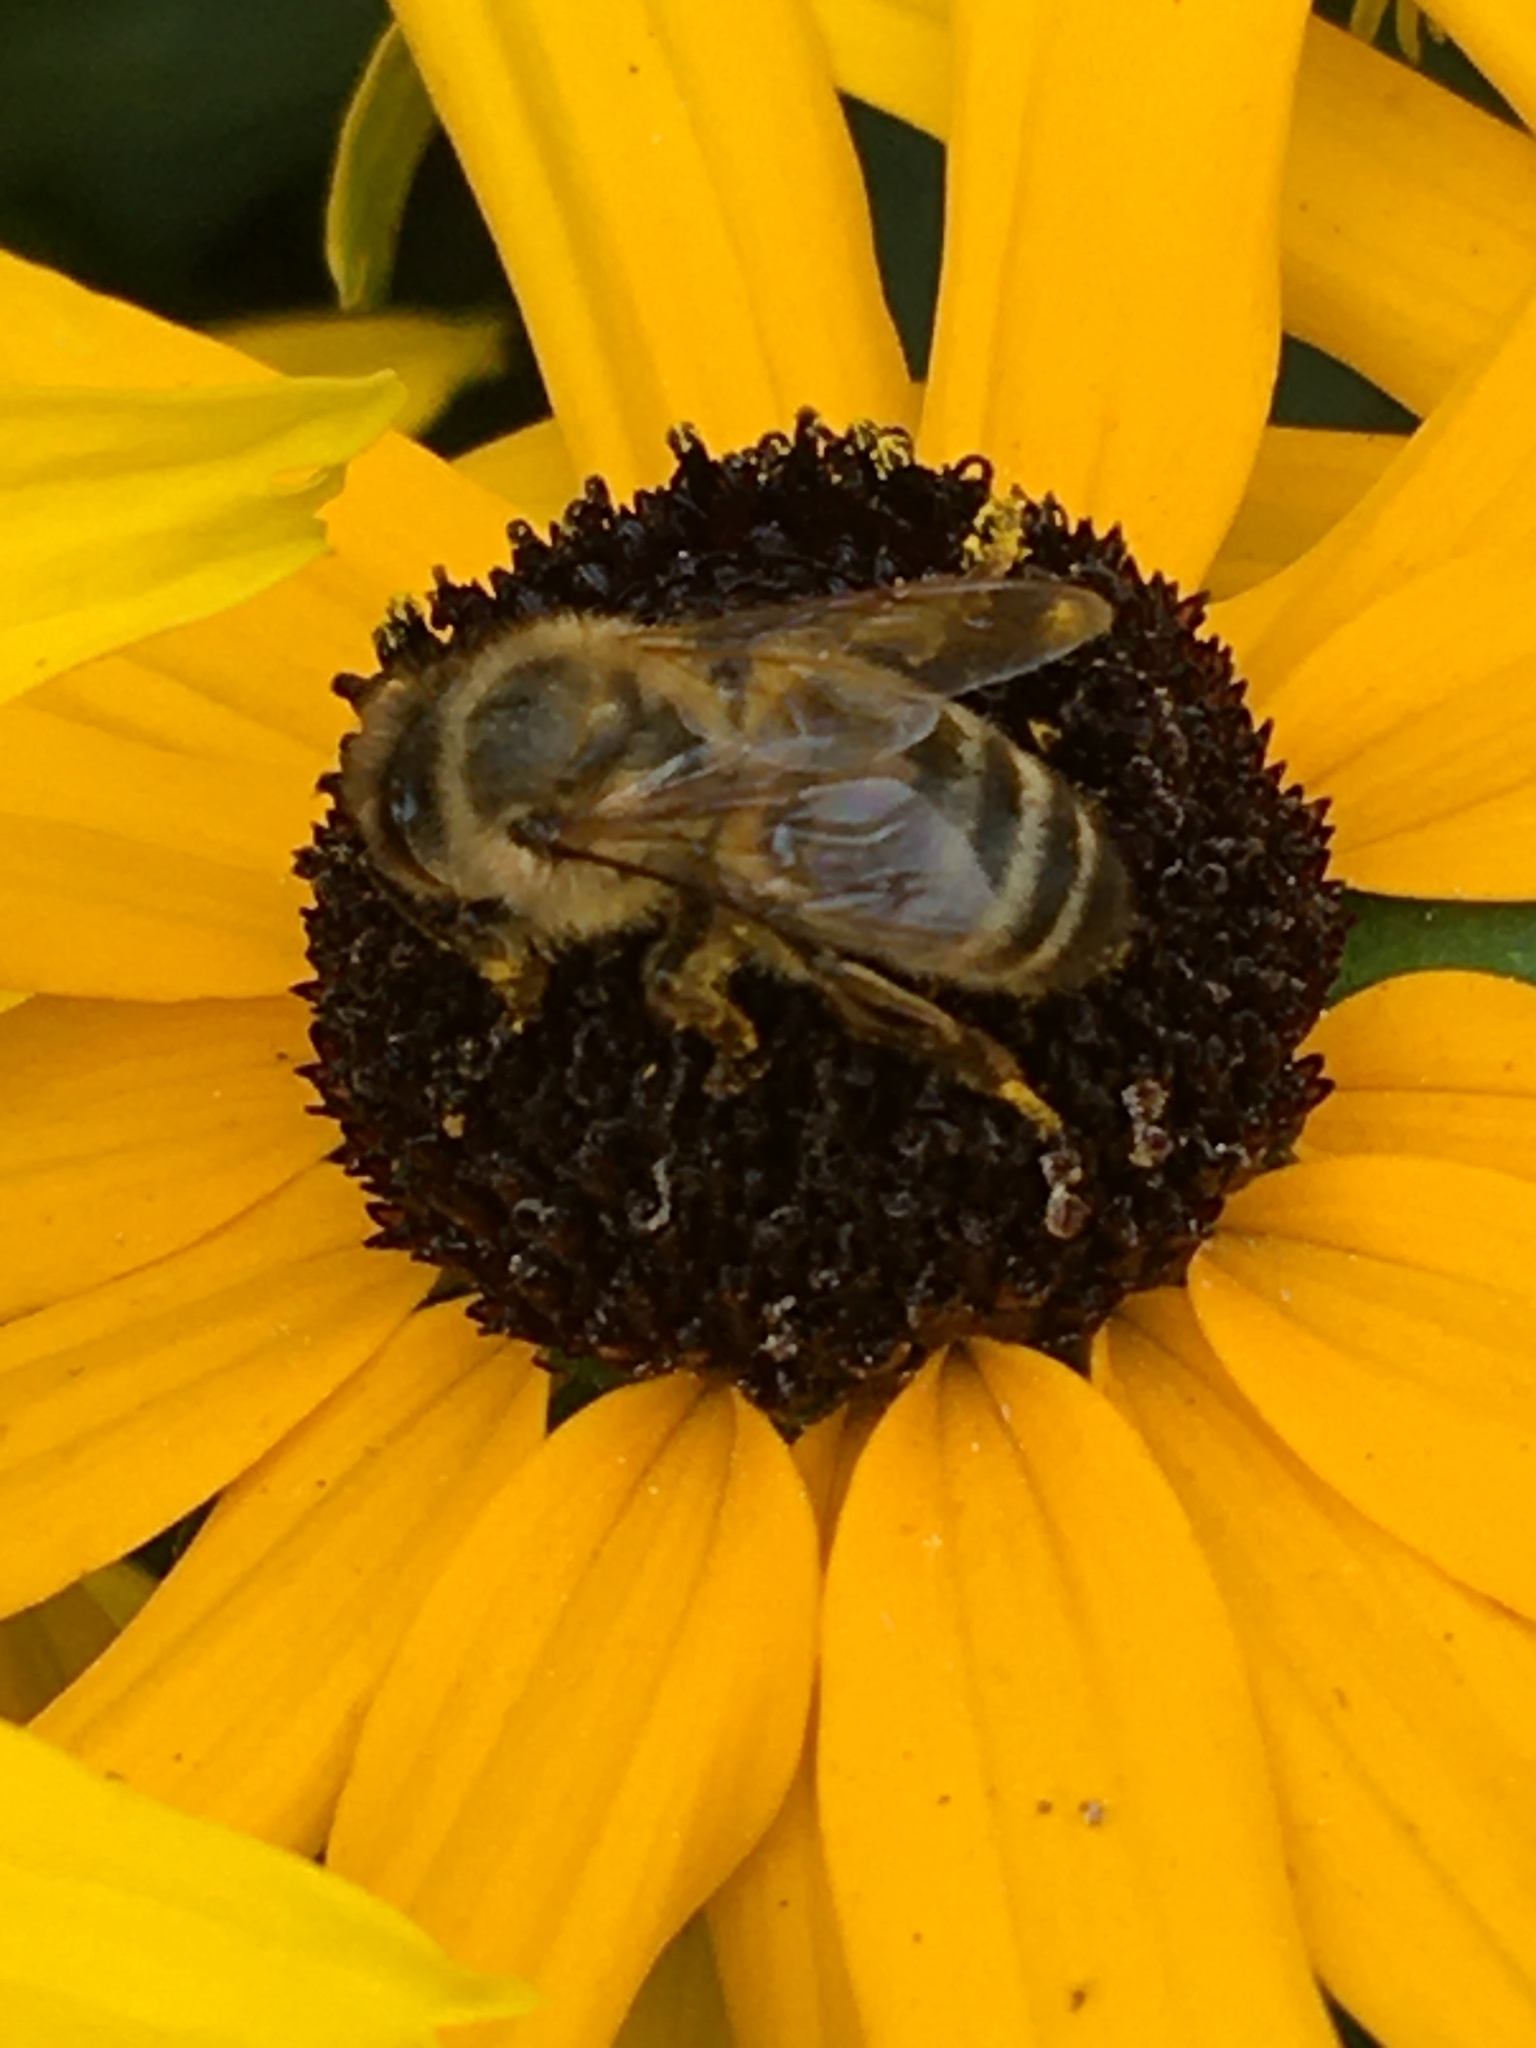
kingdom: Animalia
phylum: Arthropoda
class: Insecta
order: Hymenoptera
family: Apidae
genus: Apis
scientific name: Apis mellifera
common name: Honey bee
